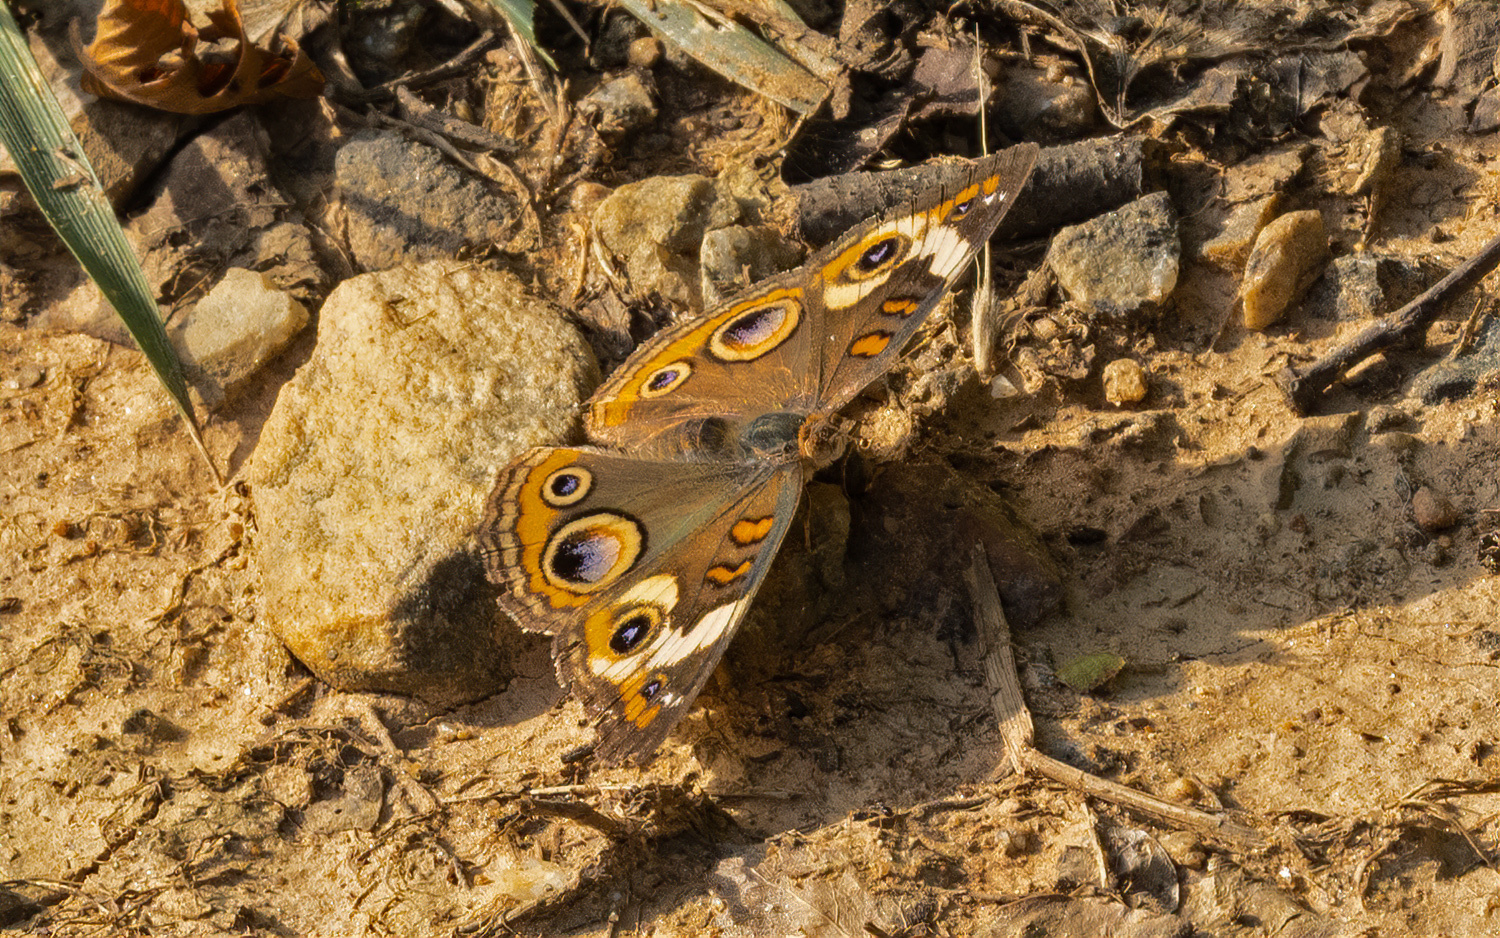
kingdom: Animalia
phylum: Arthropoda
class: Insecta
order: Lepidoptera
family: Nymphalidae
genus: Junonia
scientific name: Junonia coenia
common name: Common buckeye
